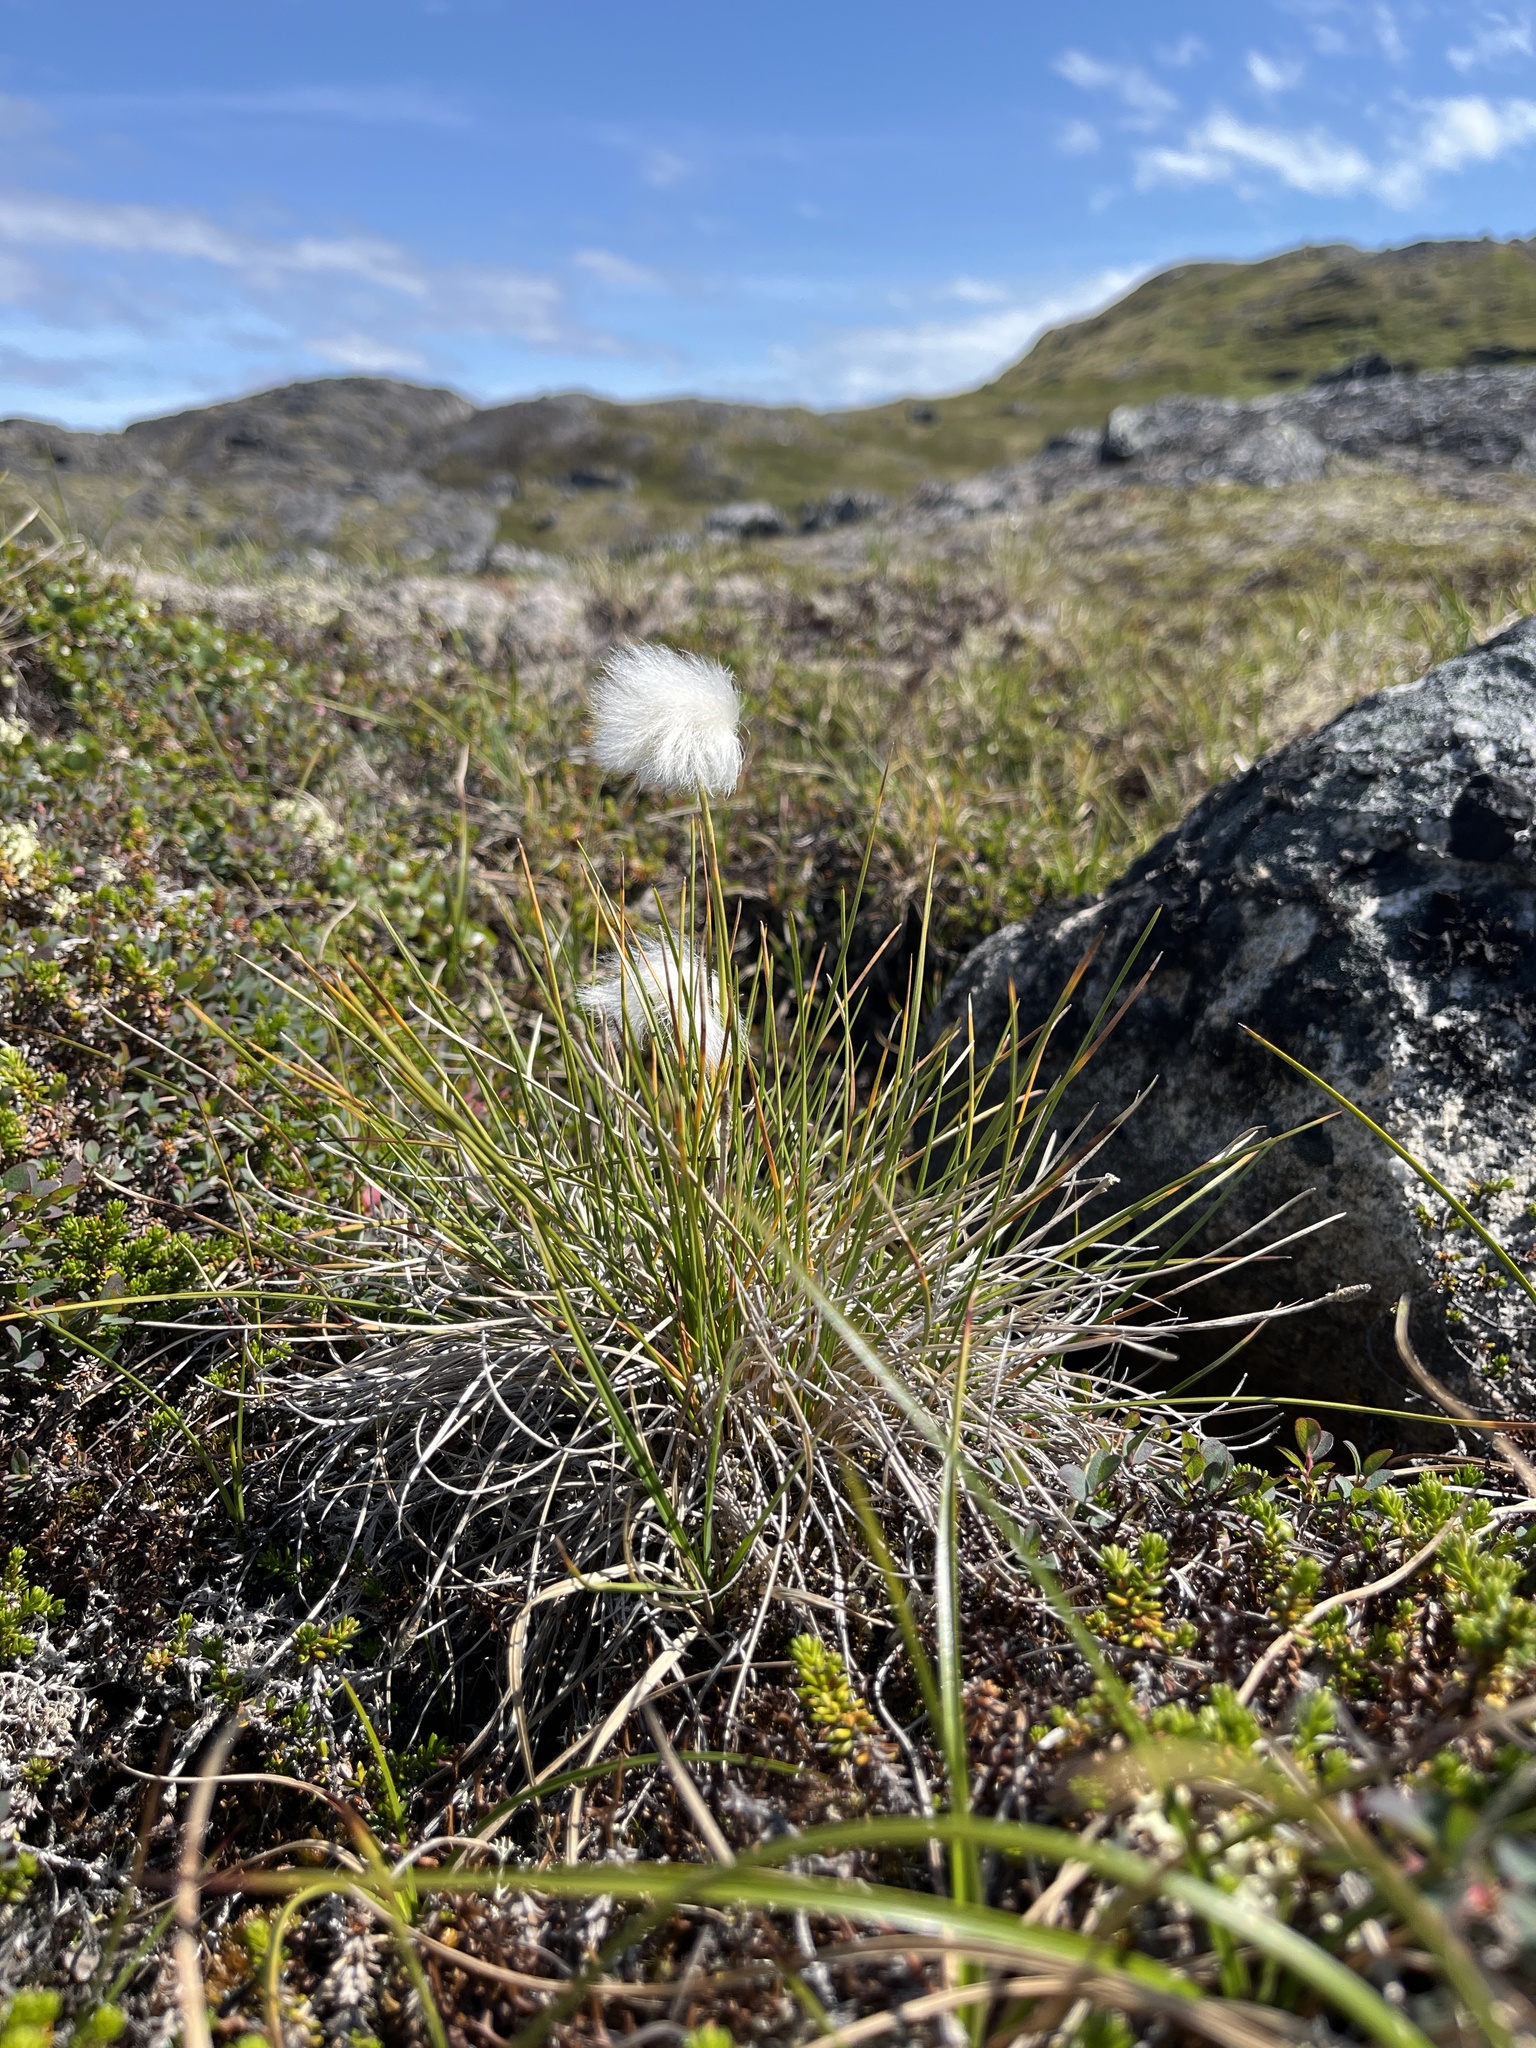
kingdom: Plantae
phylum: Tracheophyta
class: Liliopsida
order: Poales
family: Cyperaceae
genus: Eriophorum
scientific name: Eriophorum vaginatum
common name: Hare's-tail cottongrass
